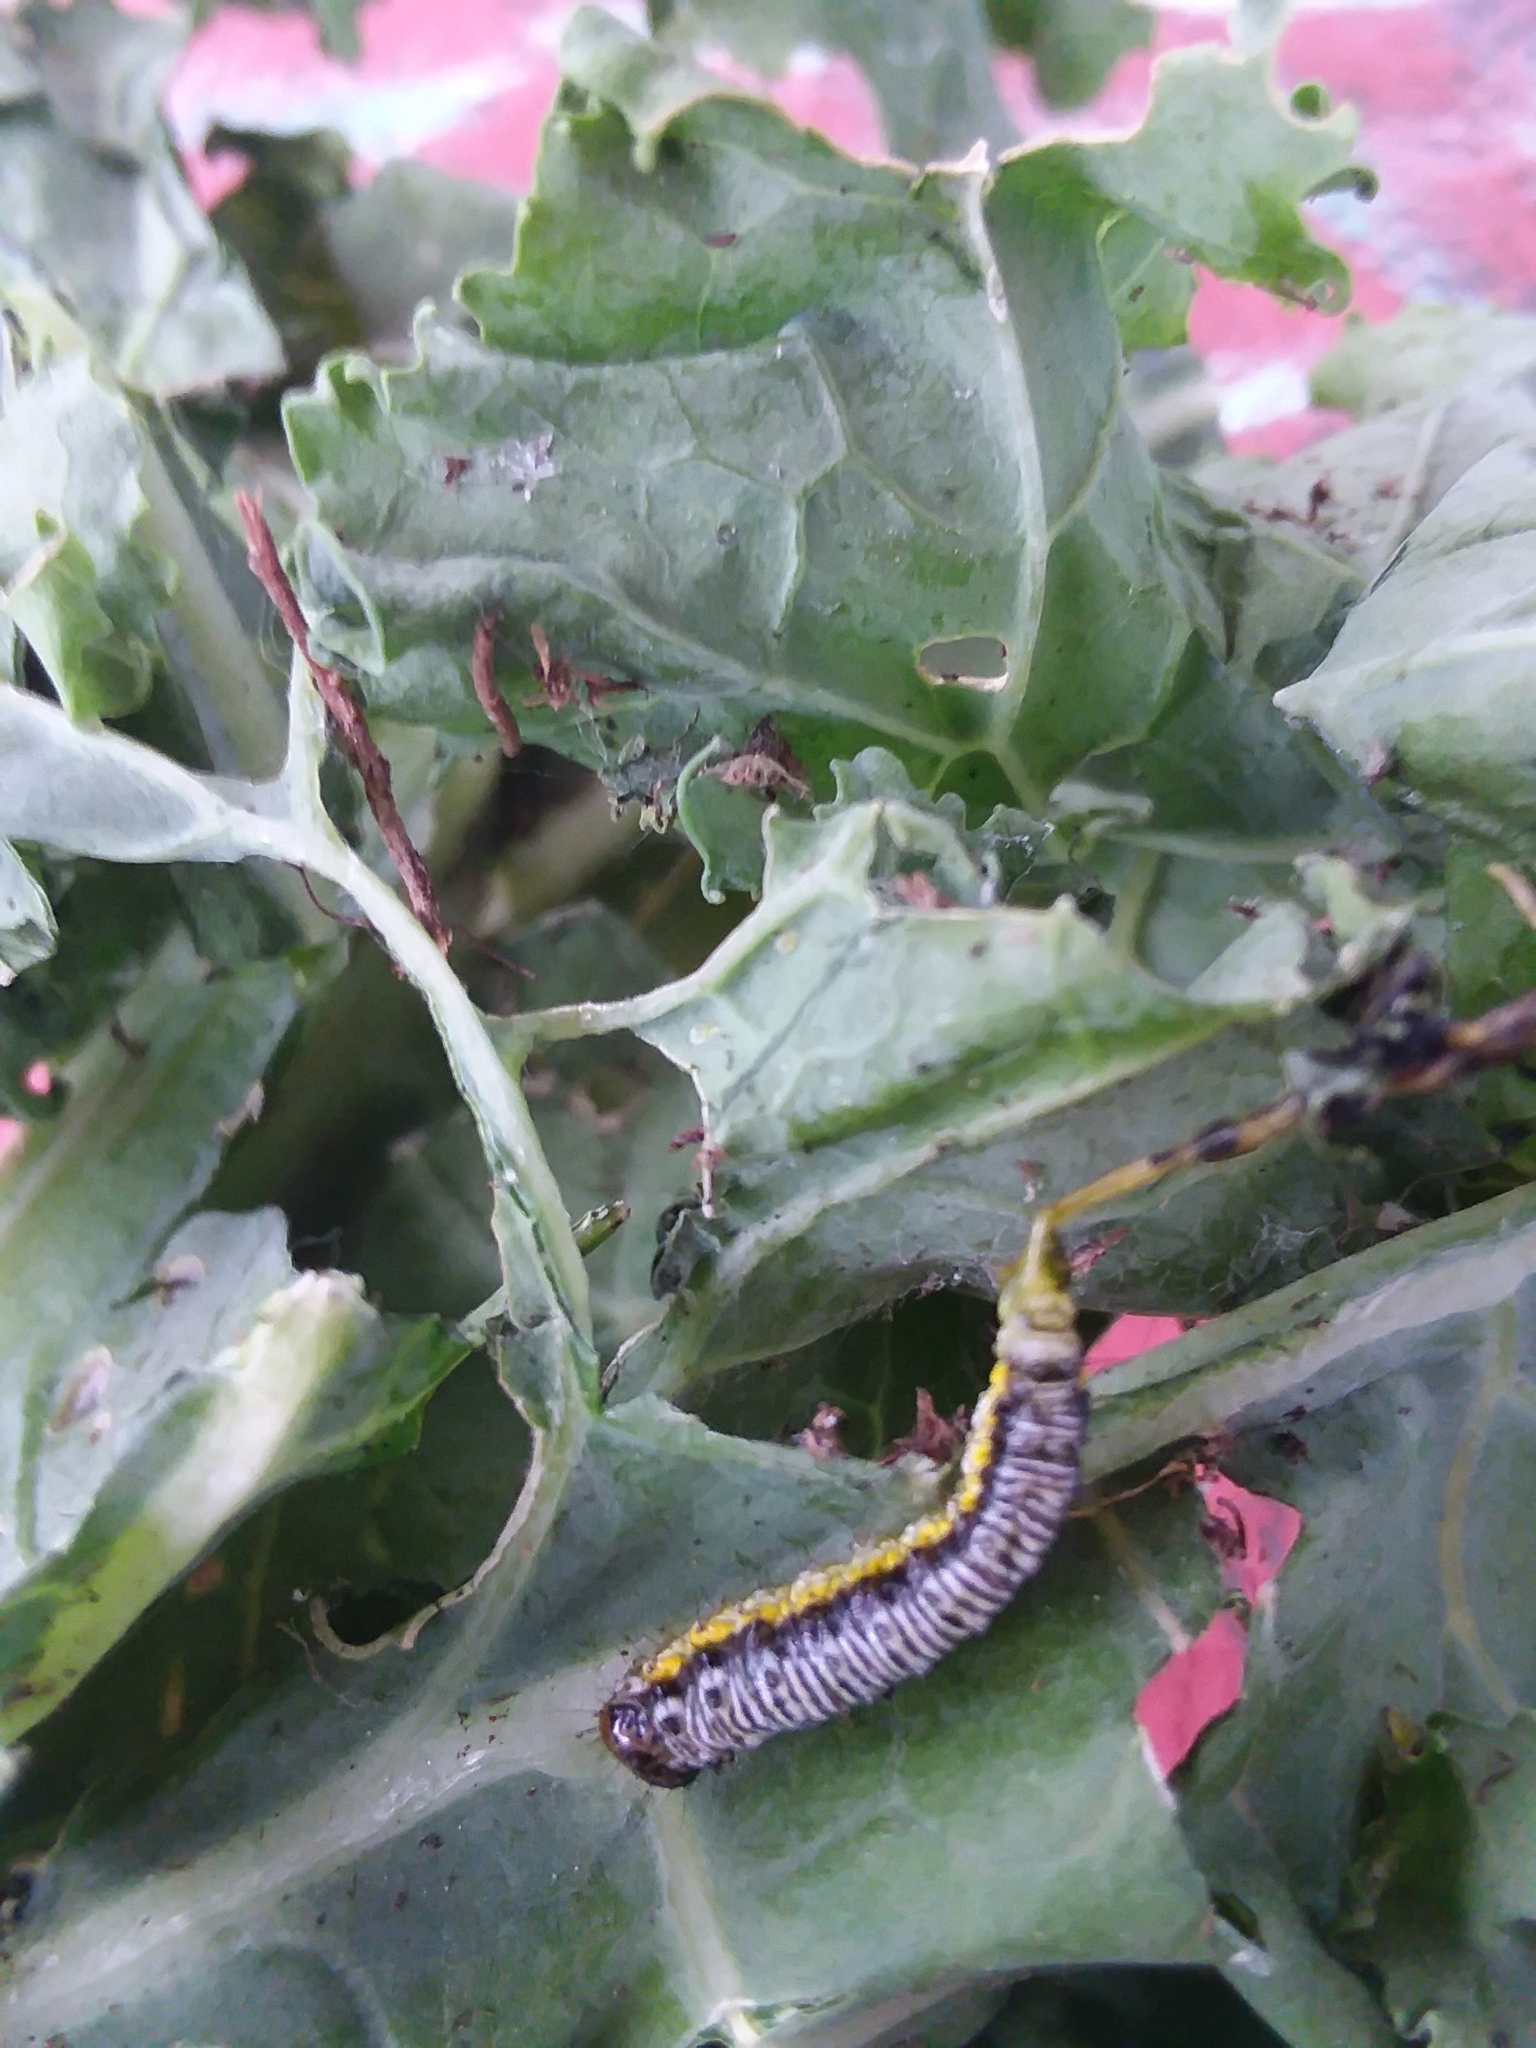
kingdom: Animalia
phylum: Arthropoda
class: Insecta
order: Lepidoptera
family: Crambidae
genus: Evergestis
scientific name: Evergestis rimosalis
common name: Cross-striped cabbageworm moth
